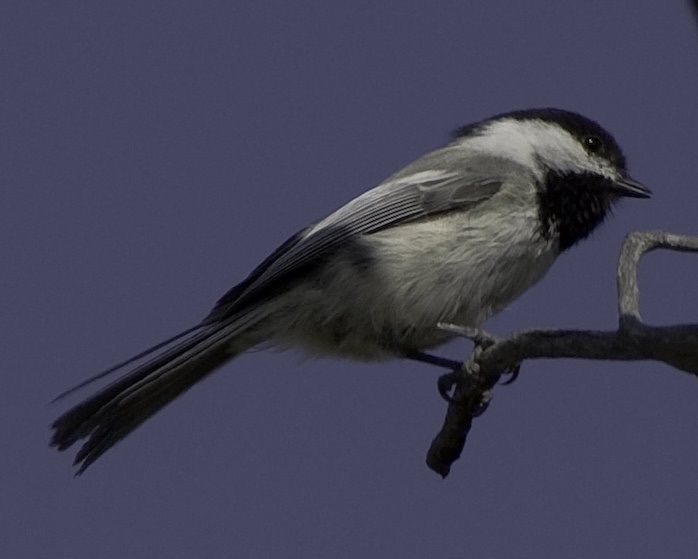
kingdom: Animalia
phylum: Chordata
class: Aves
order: Passeriformes
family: Paridae
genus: Poecile
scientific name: Poecile atricapillus
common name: Black-capped chickadee
